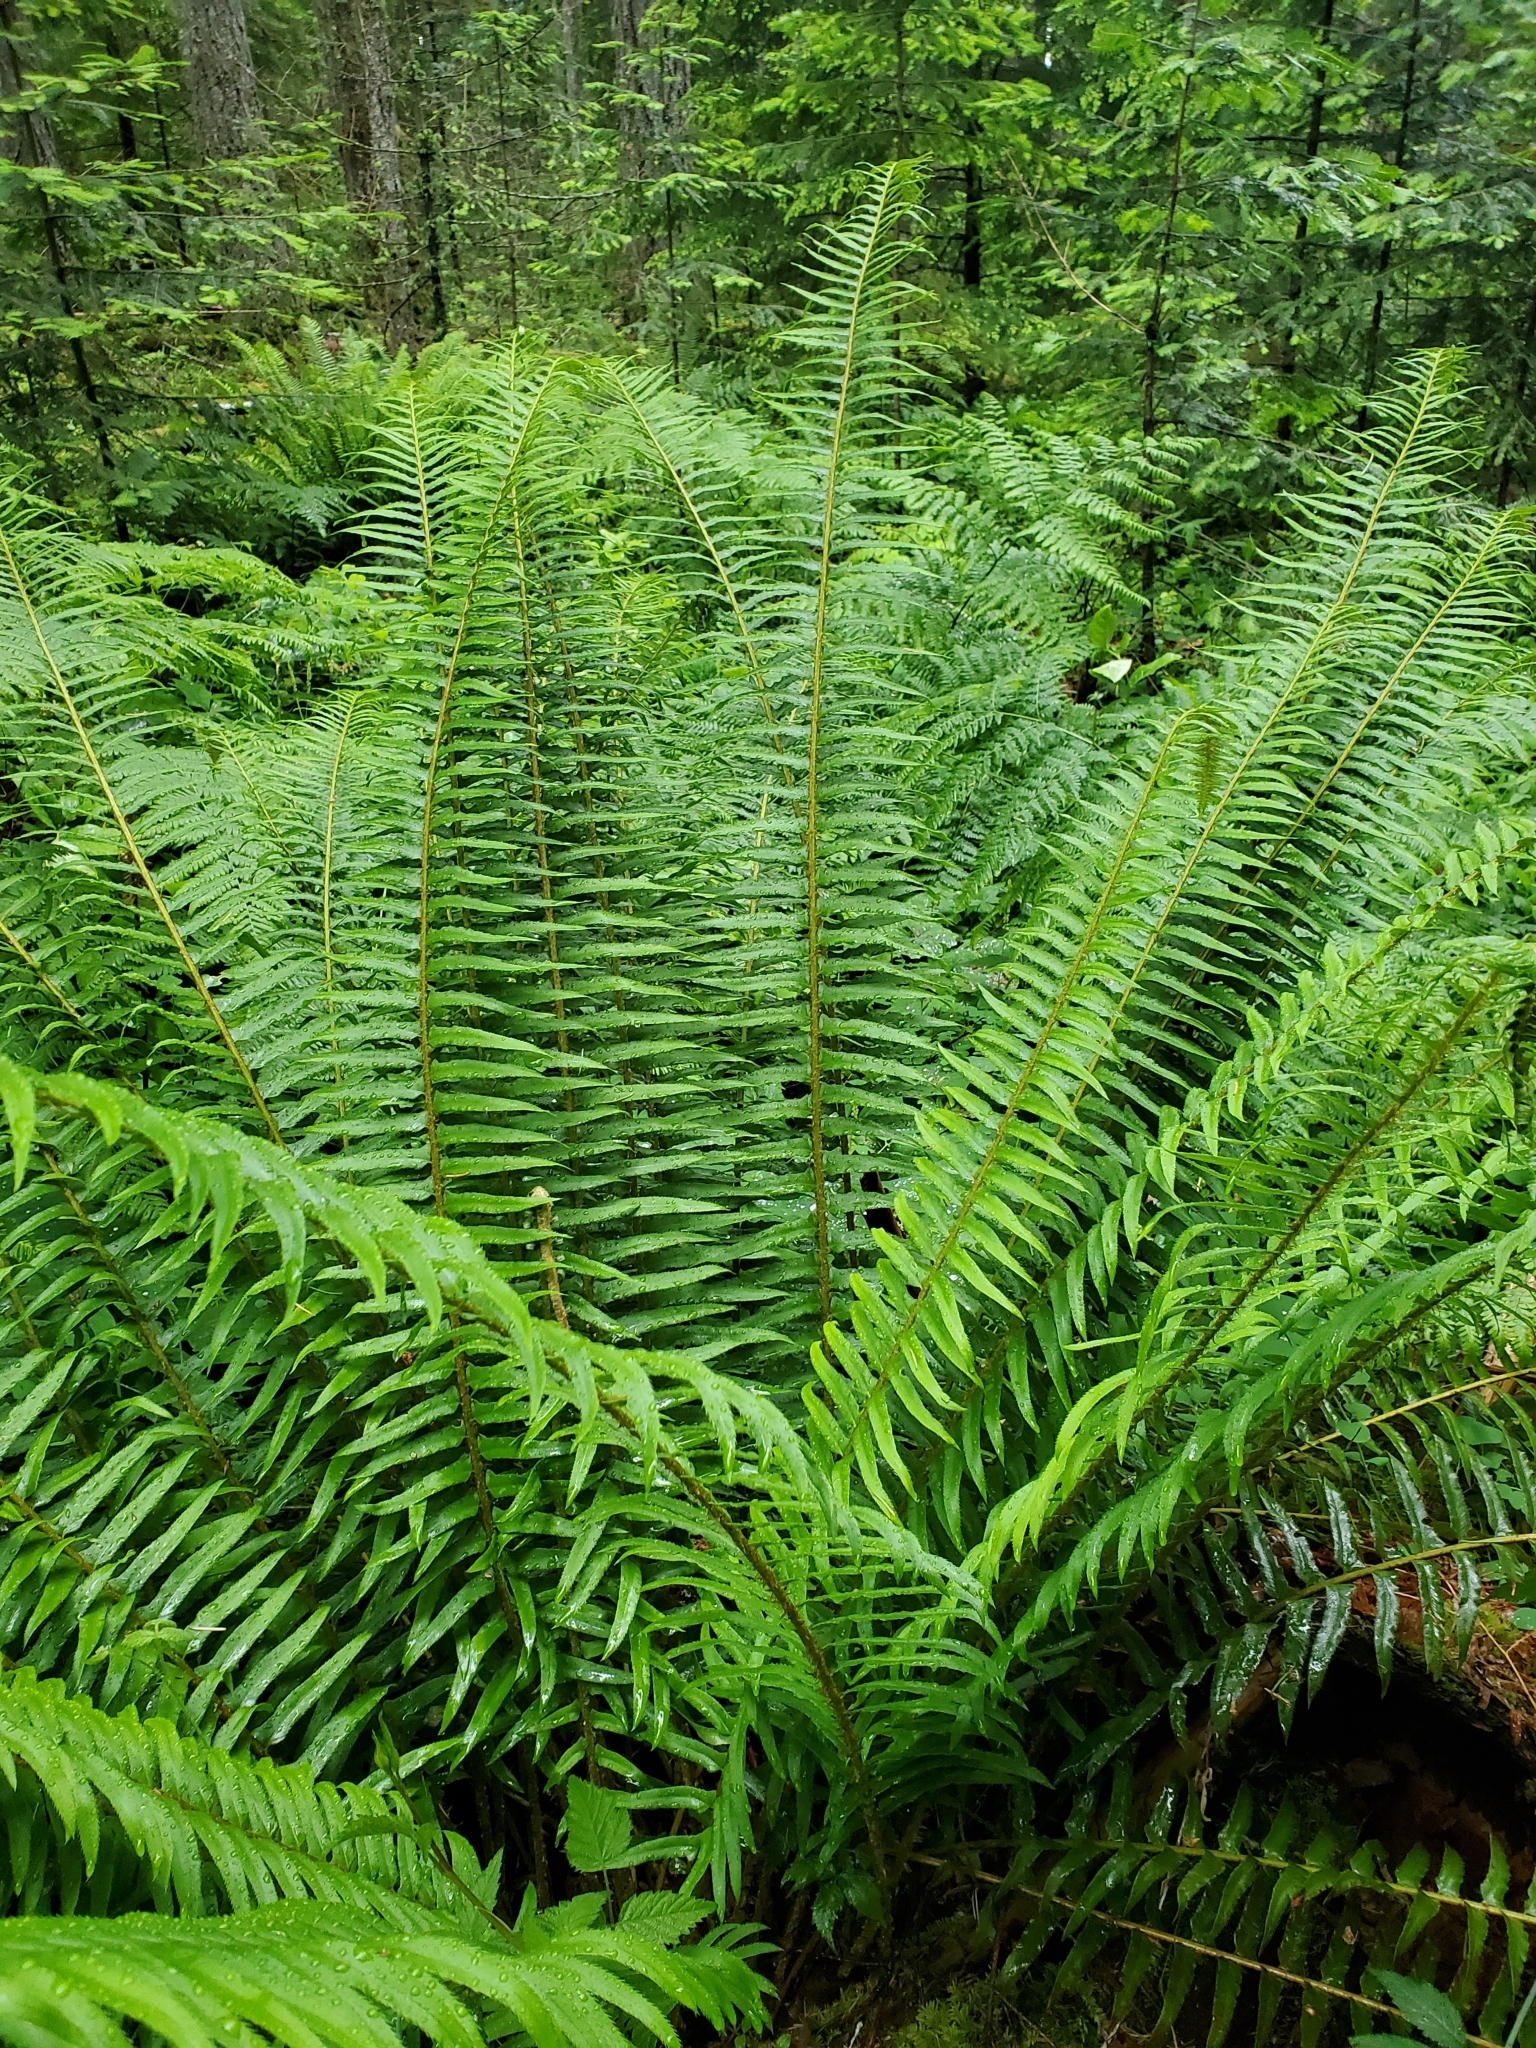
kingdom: Plantae
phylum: Tracheophyta
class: Polypodiopsida
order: Polypodiales
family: Dryopteridaceae
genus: Polystichum
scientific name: Polystichum munitum
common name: Western sword-fern
